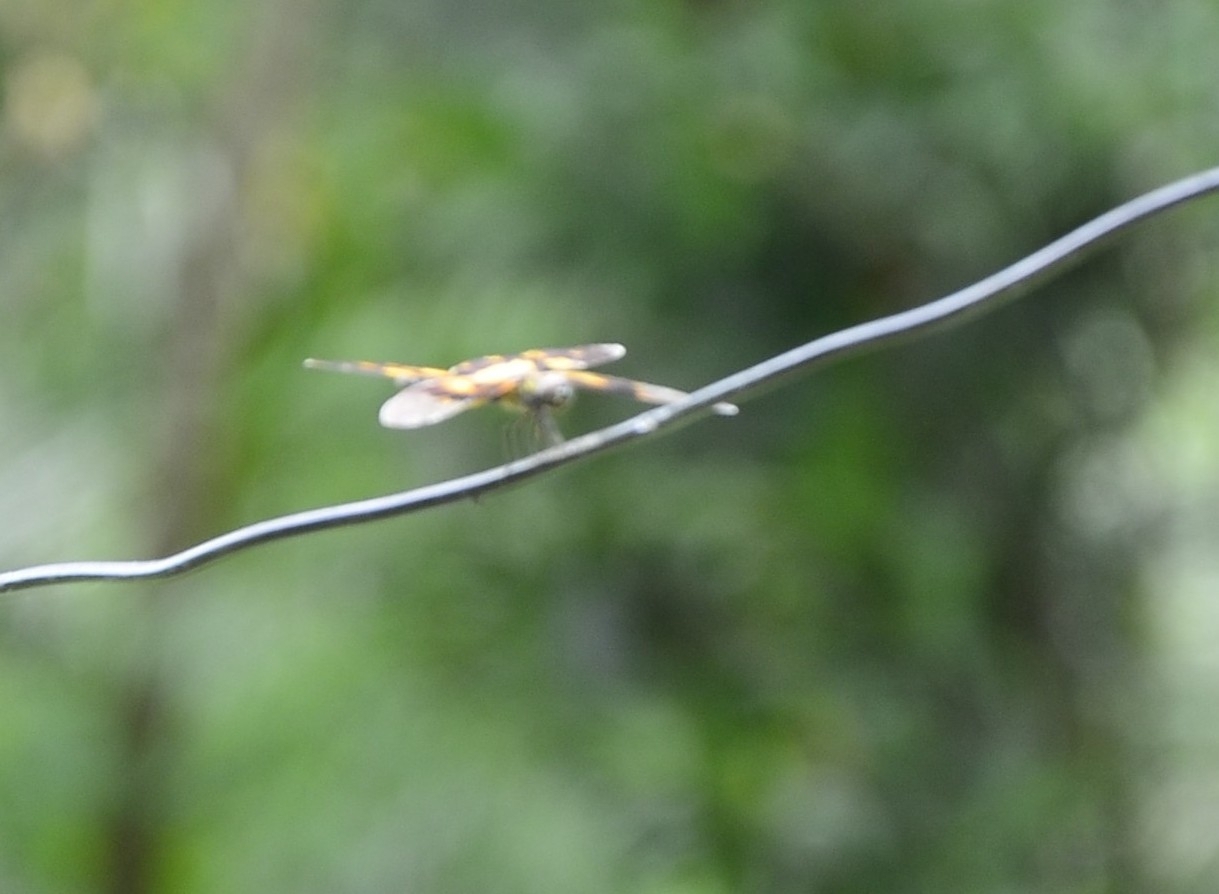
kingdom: Animalia
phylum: Arthropoda
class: Insecta
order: Odonata
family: Libellulidae
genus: Rhyothemis
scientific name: Rhyothemis variegata
